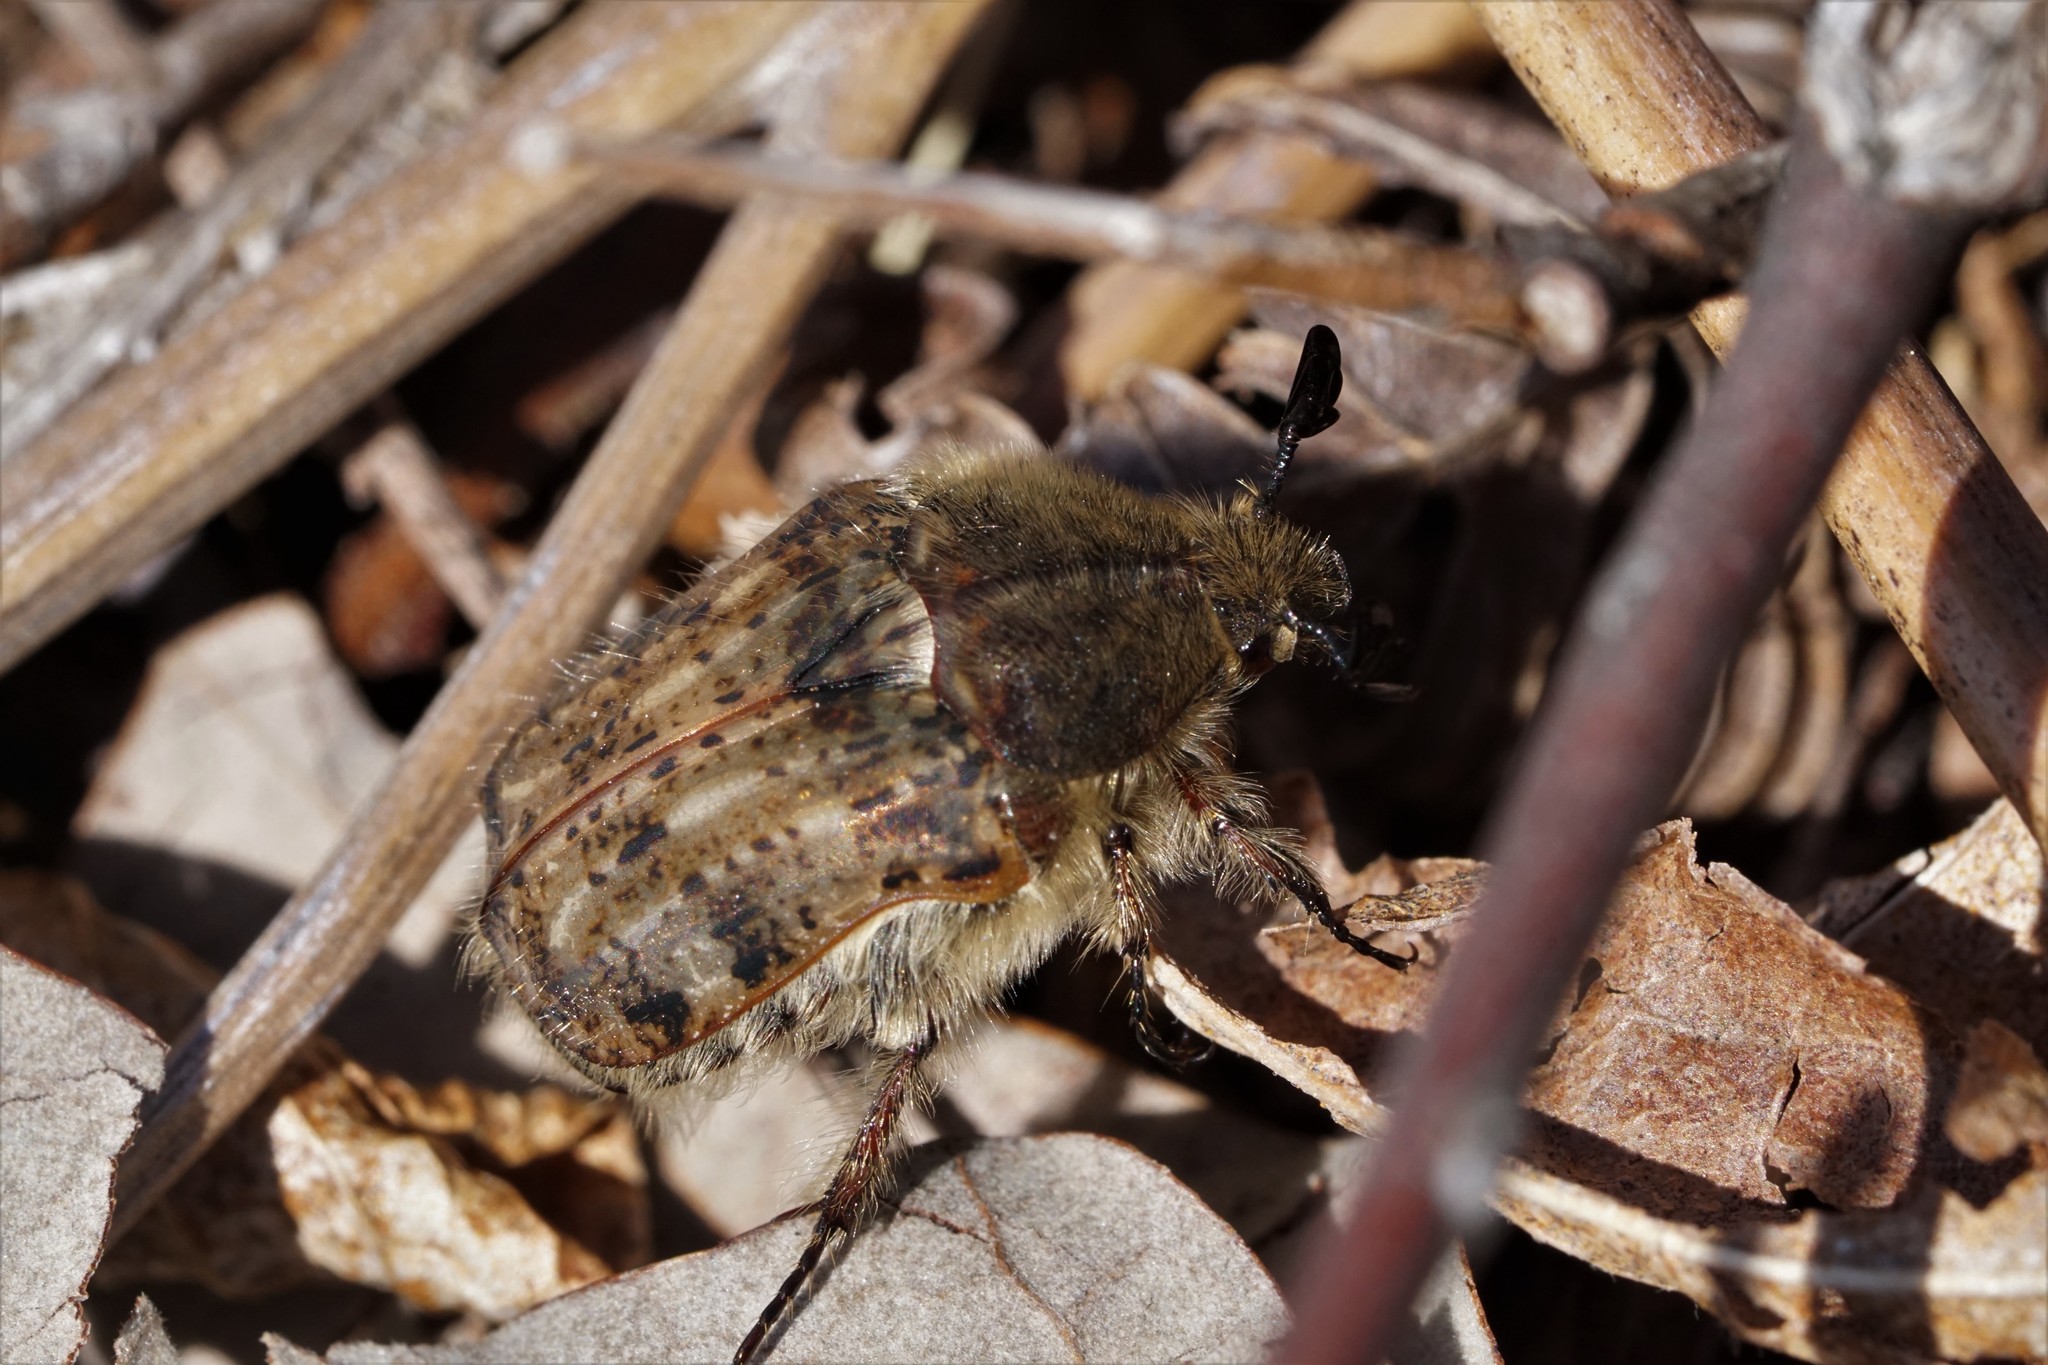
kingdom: Animalia
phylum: Arthropoda
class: Insecta
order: Coleoptera
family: Scarabaeidae
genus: Euphoria
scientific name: Euphoria inda
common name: Bumble flower beetle
